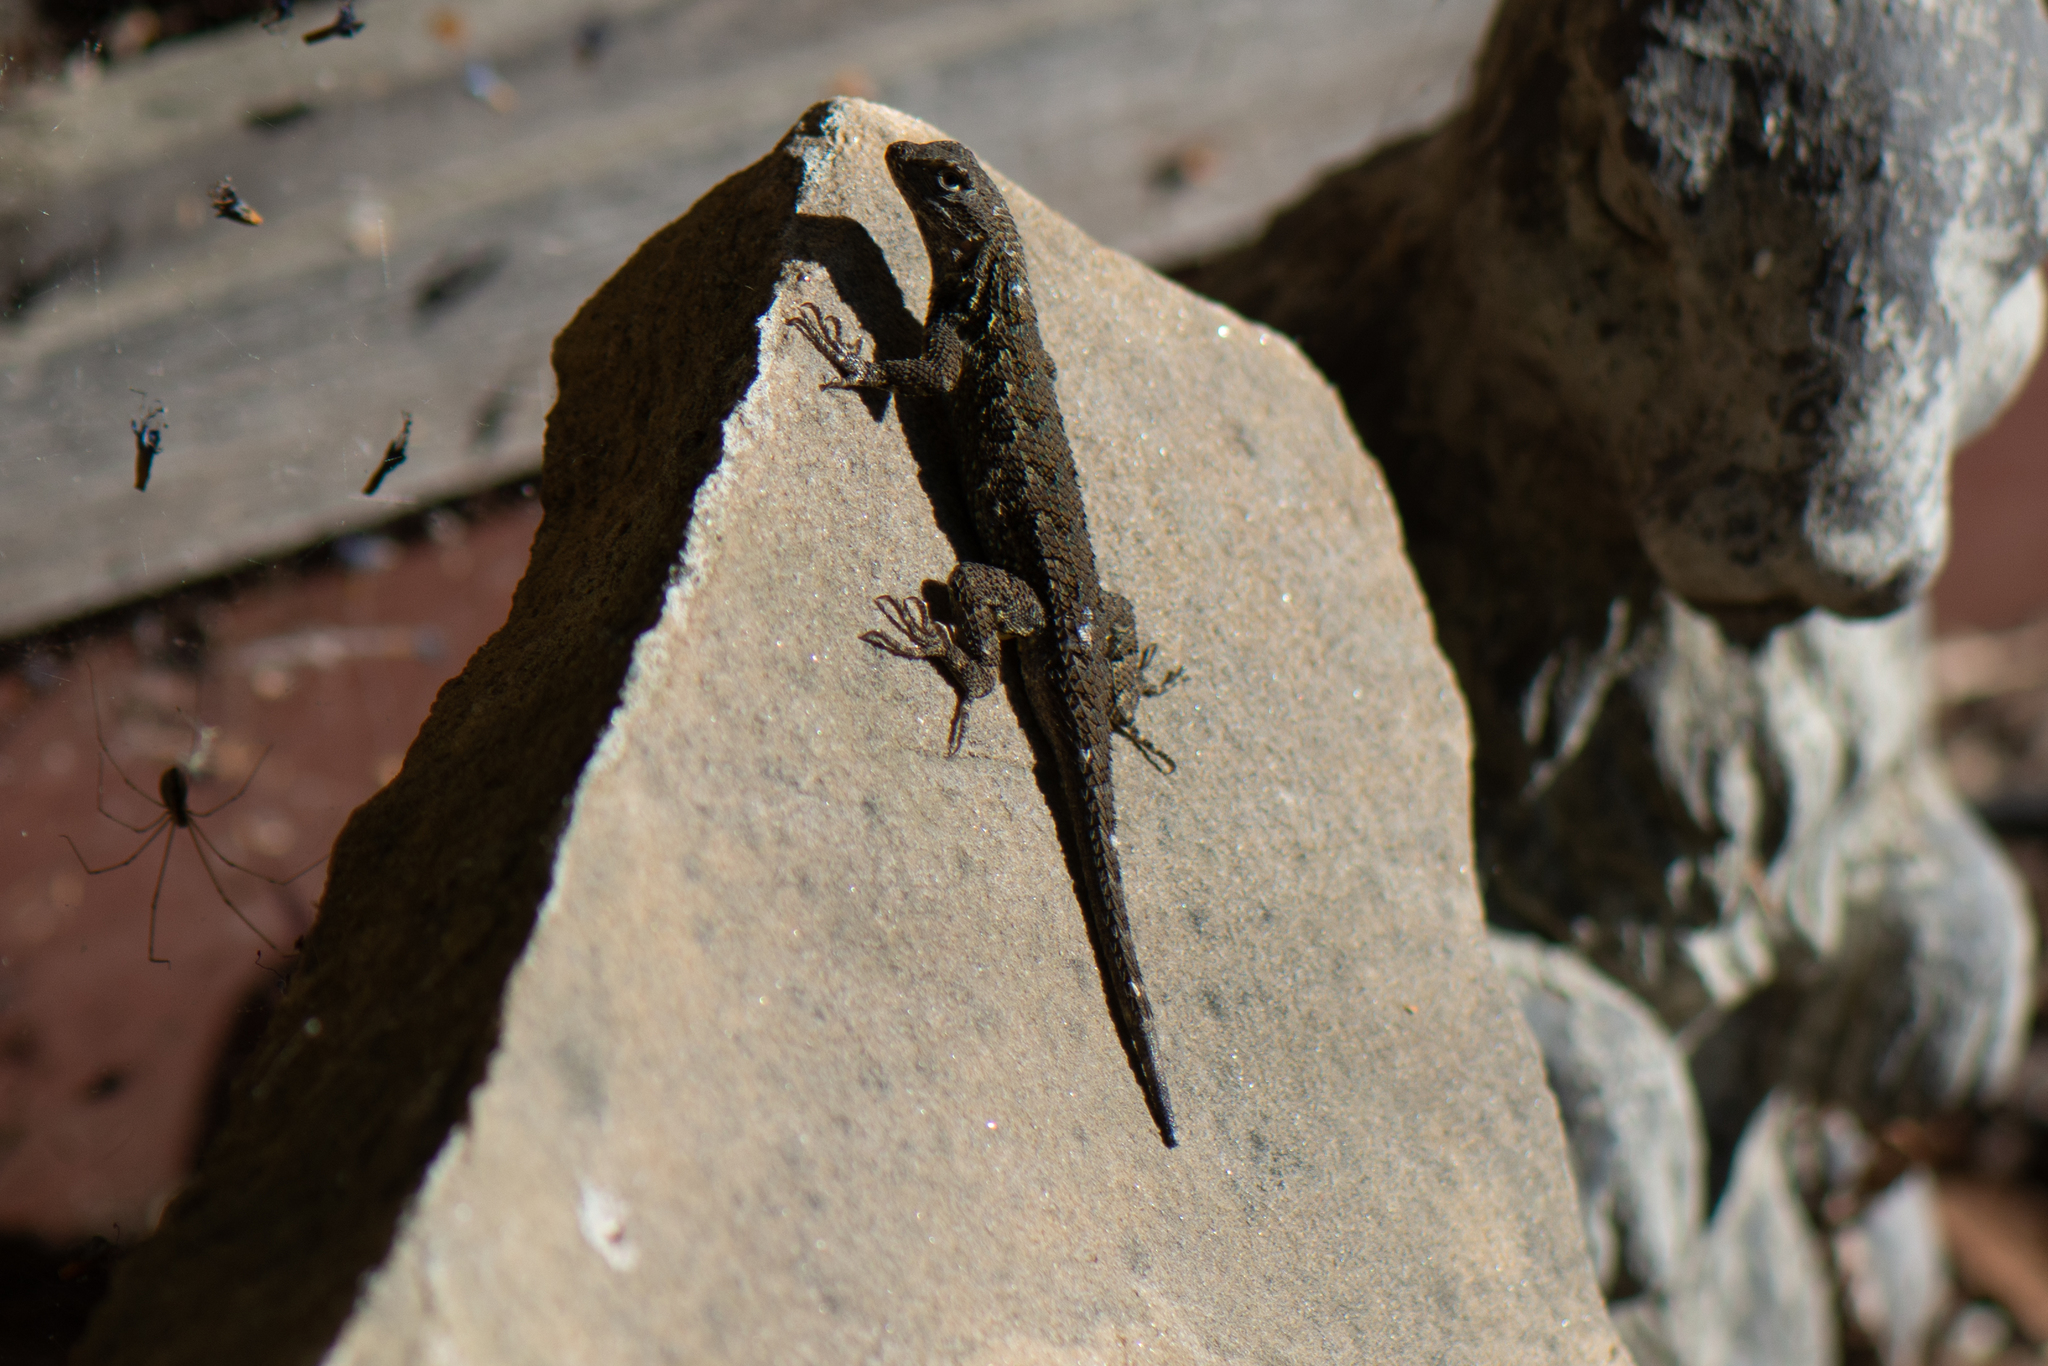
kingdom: Animalia
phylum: Chordata
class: Squamata
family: Phrynosomatidae
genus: Sceloporus
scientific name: Sceloporus occidentalis
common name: Western fence lizard
